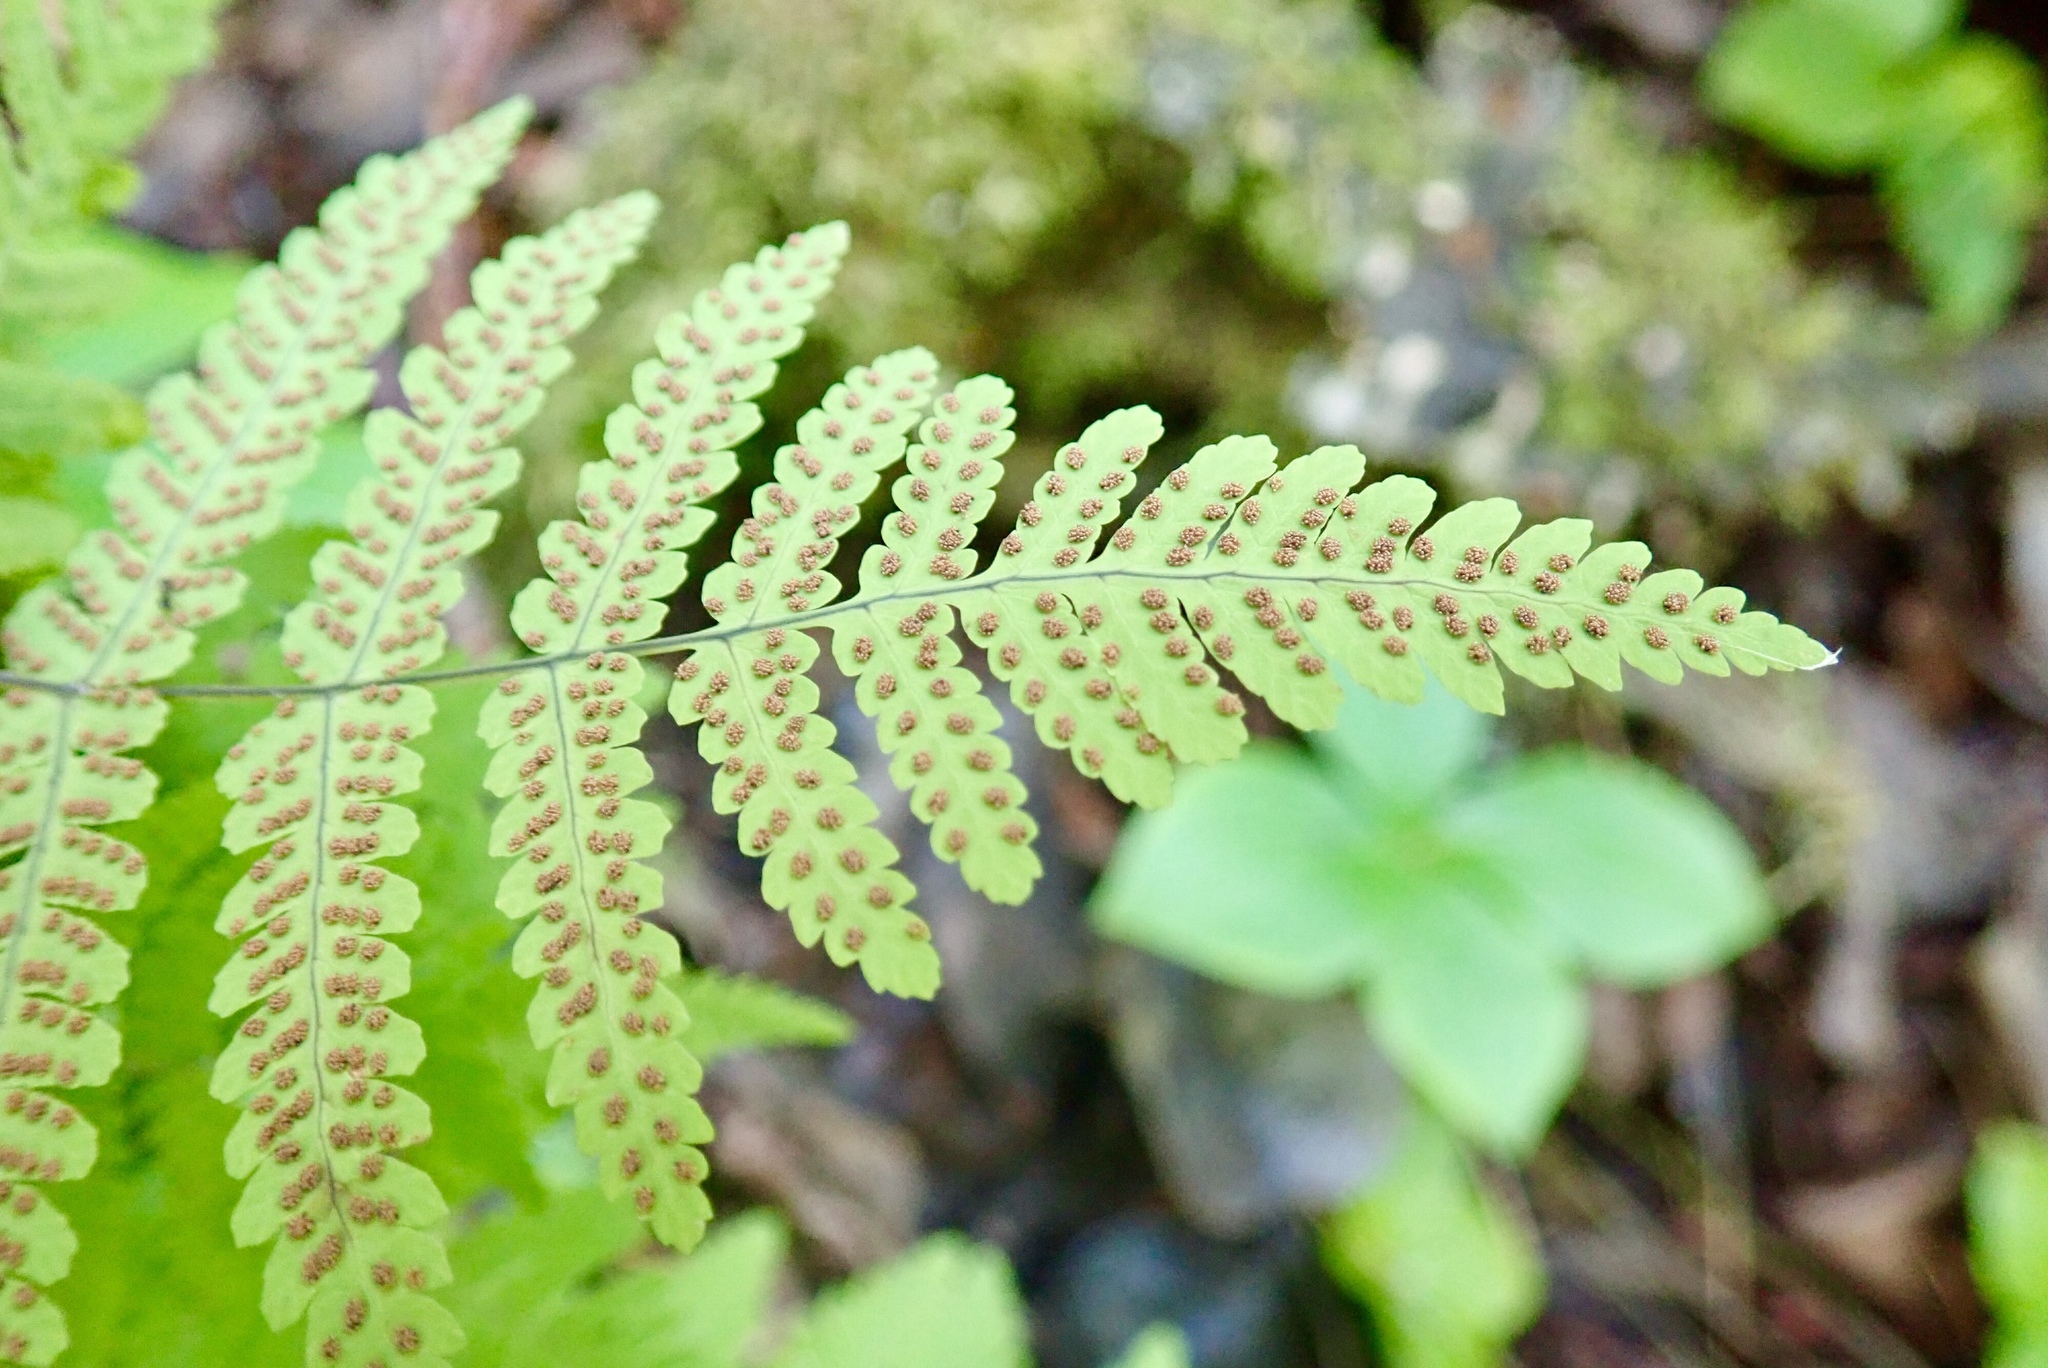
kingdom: Plantae
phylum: Tracheophyta
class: Polypodiopsida
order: Polypodiales
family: Cystopteridaceae
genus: Gymnocarpium
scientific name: Gymnocarpium dryopteris
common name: Oak fern
